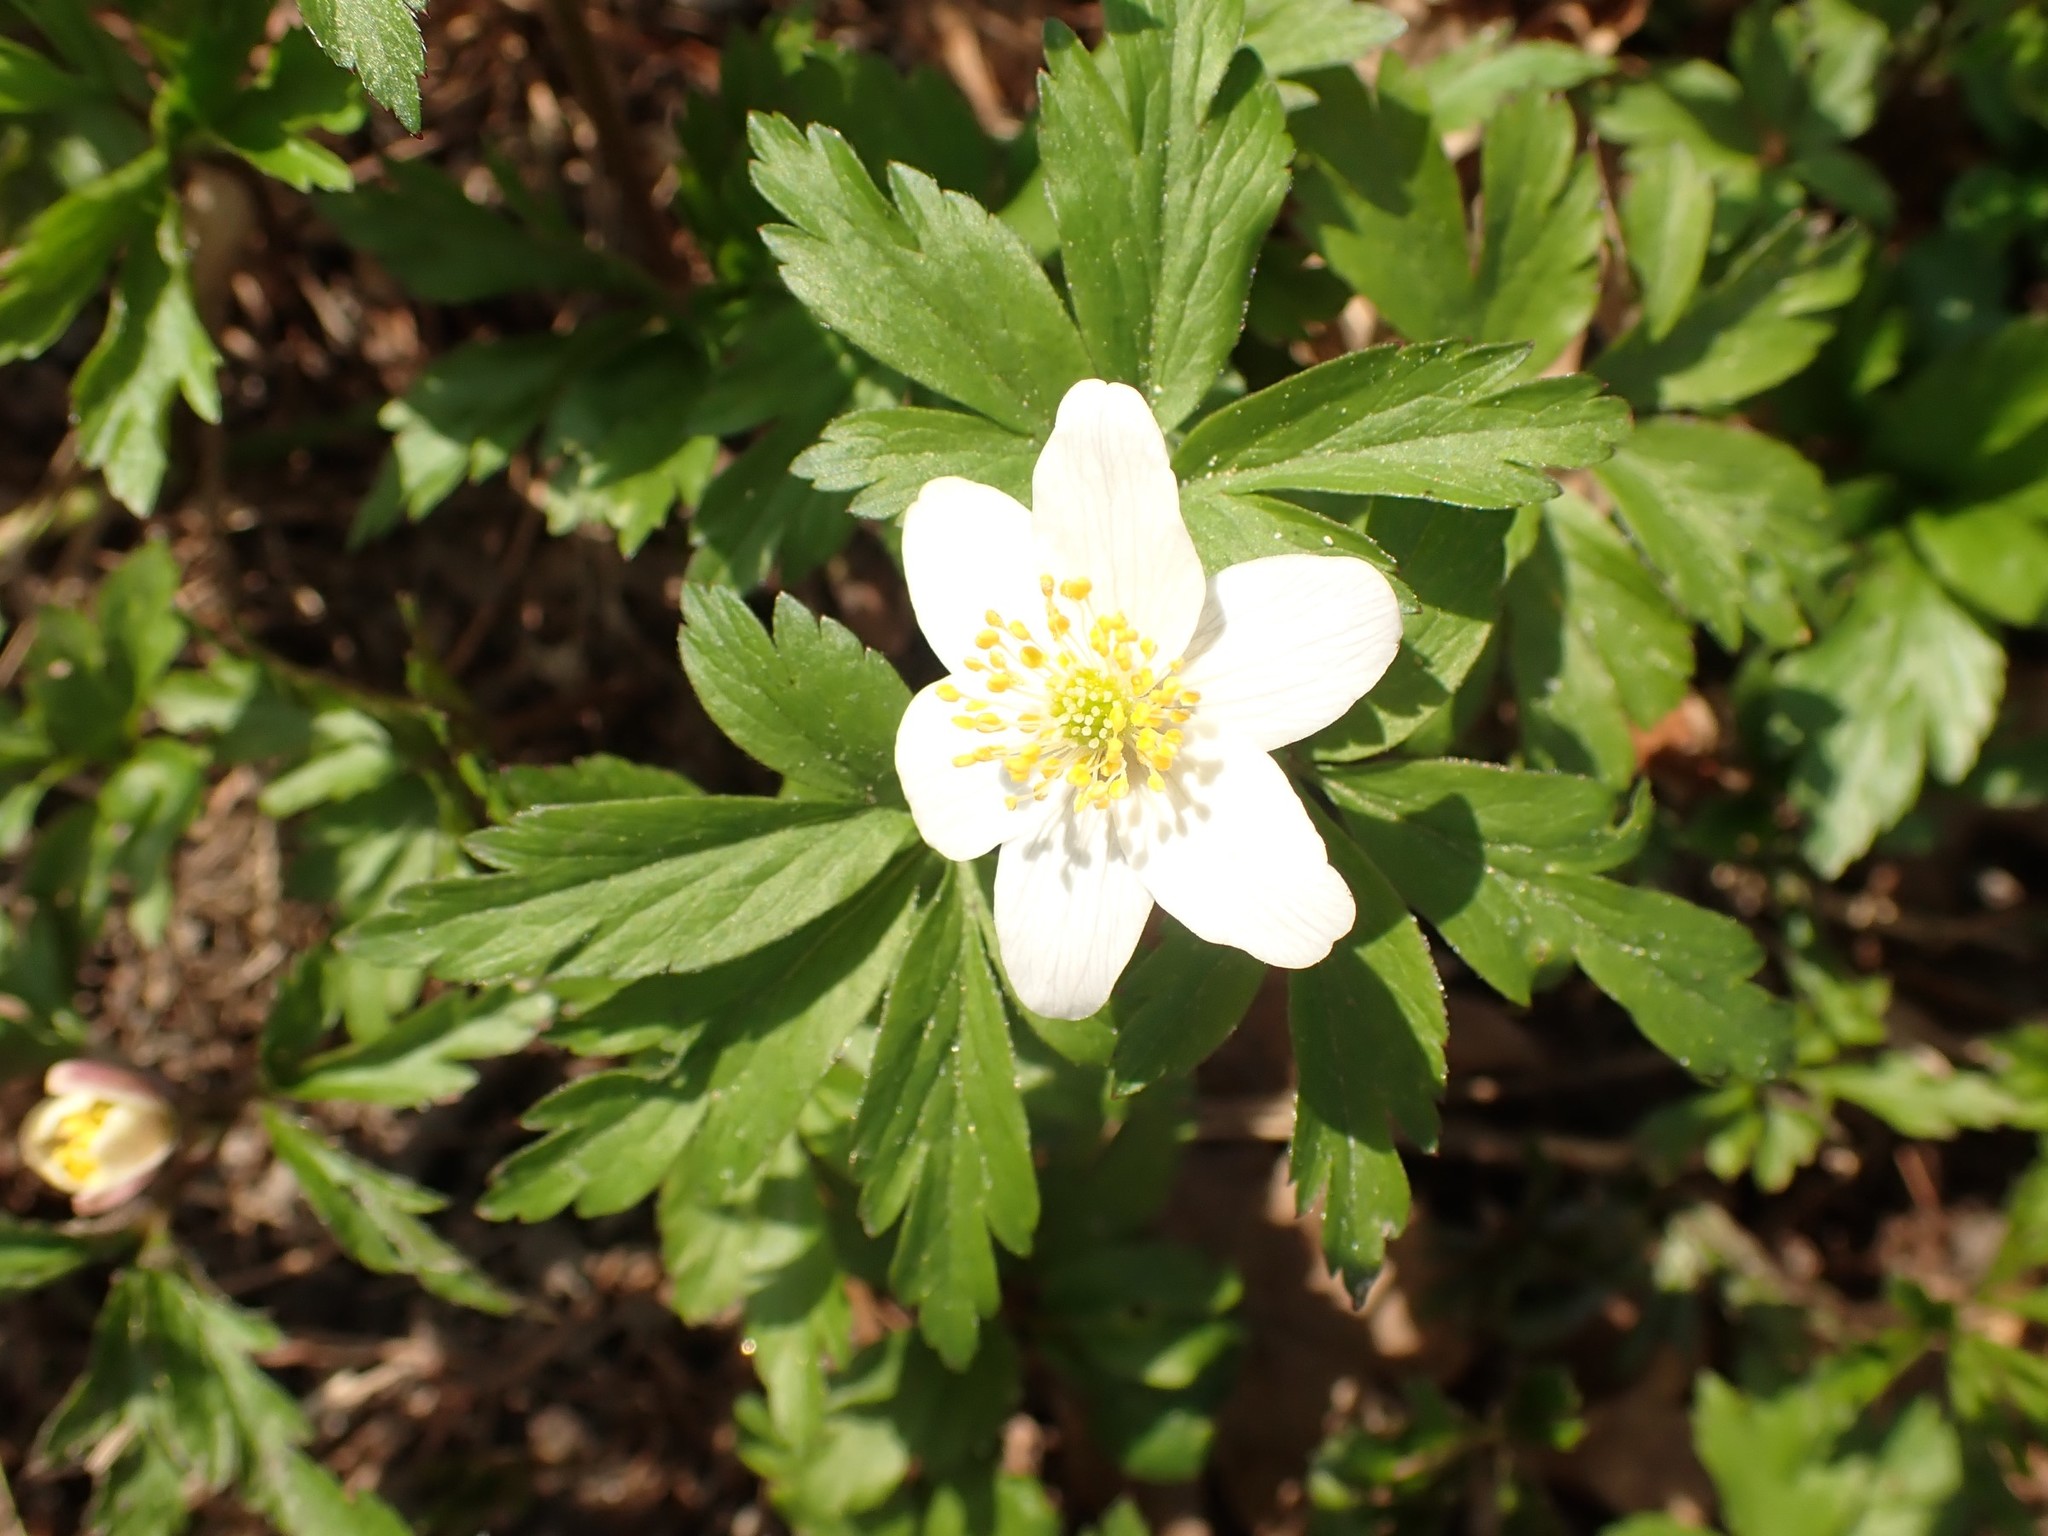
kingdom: Plantae
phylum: Tracheophyta
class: Magnoliopsida
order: Ranunculales
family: Ranunculaceae
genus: Anemone
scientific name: Anemone nemorosa
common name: Wood anemone
